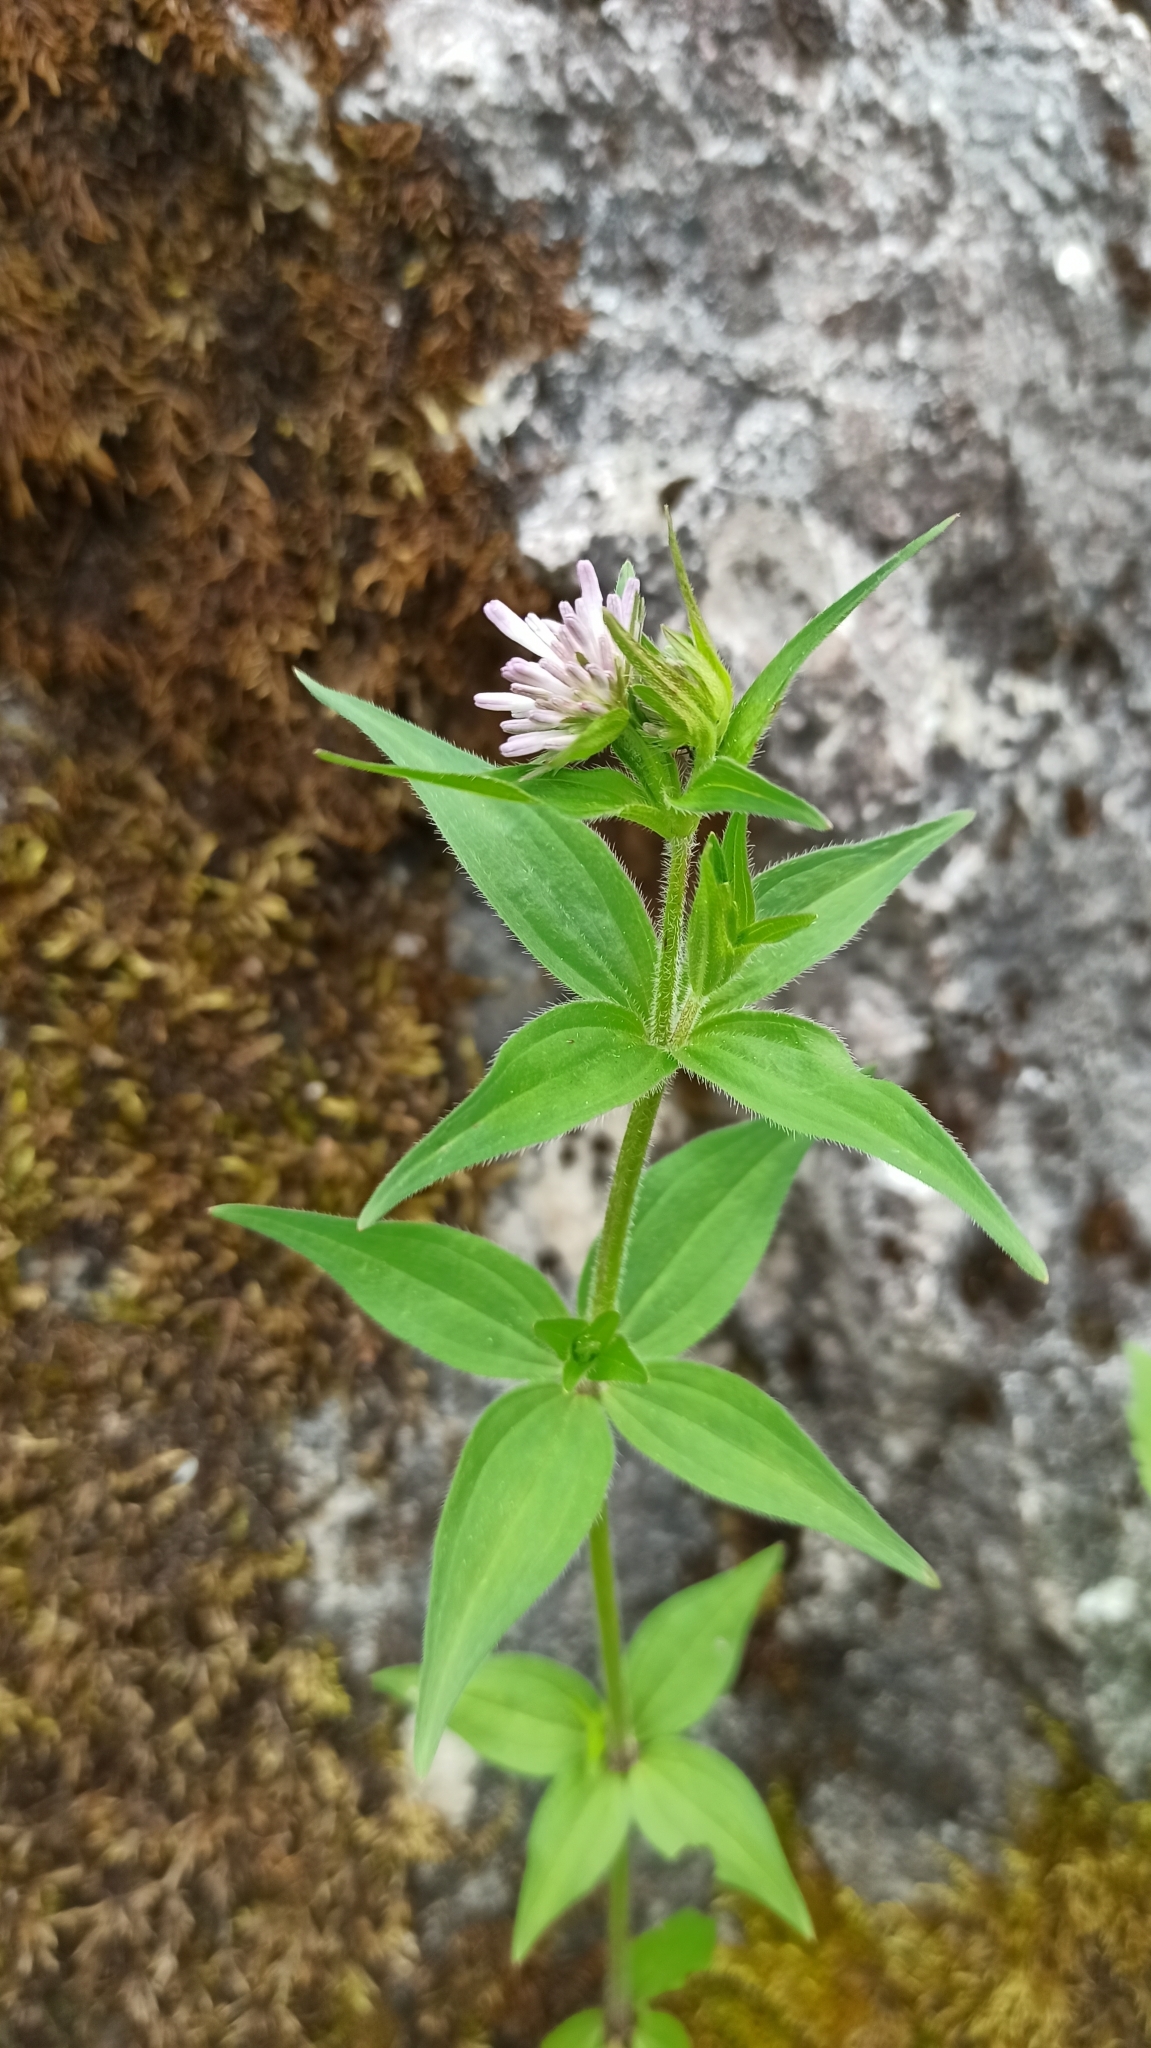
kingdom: Plantae
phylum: Tracheophyta
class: Magnoliopsida
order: Gentianales
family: Rubiaceae
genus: Asperula
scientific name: Asperula taurina
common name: Pink woodruff
